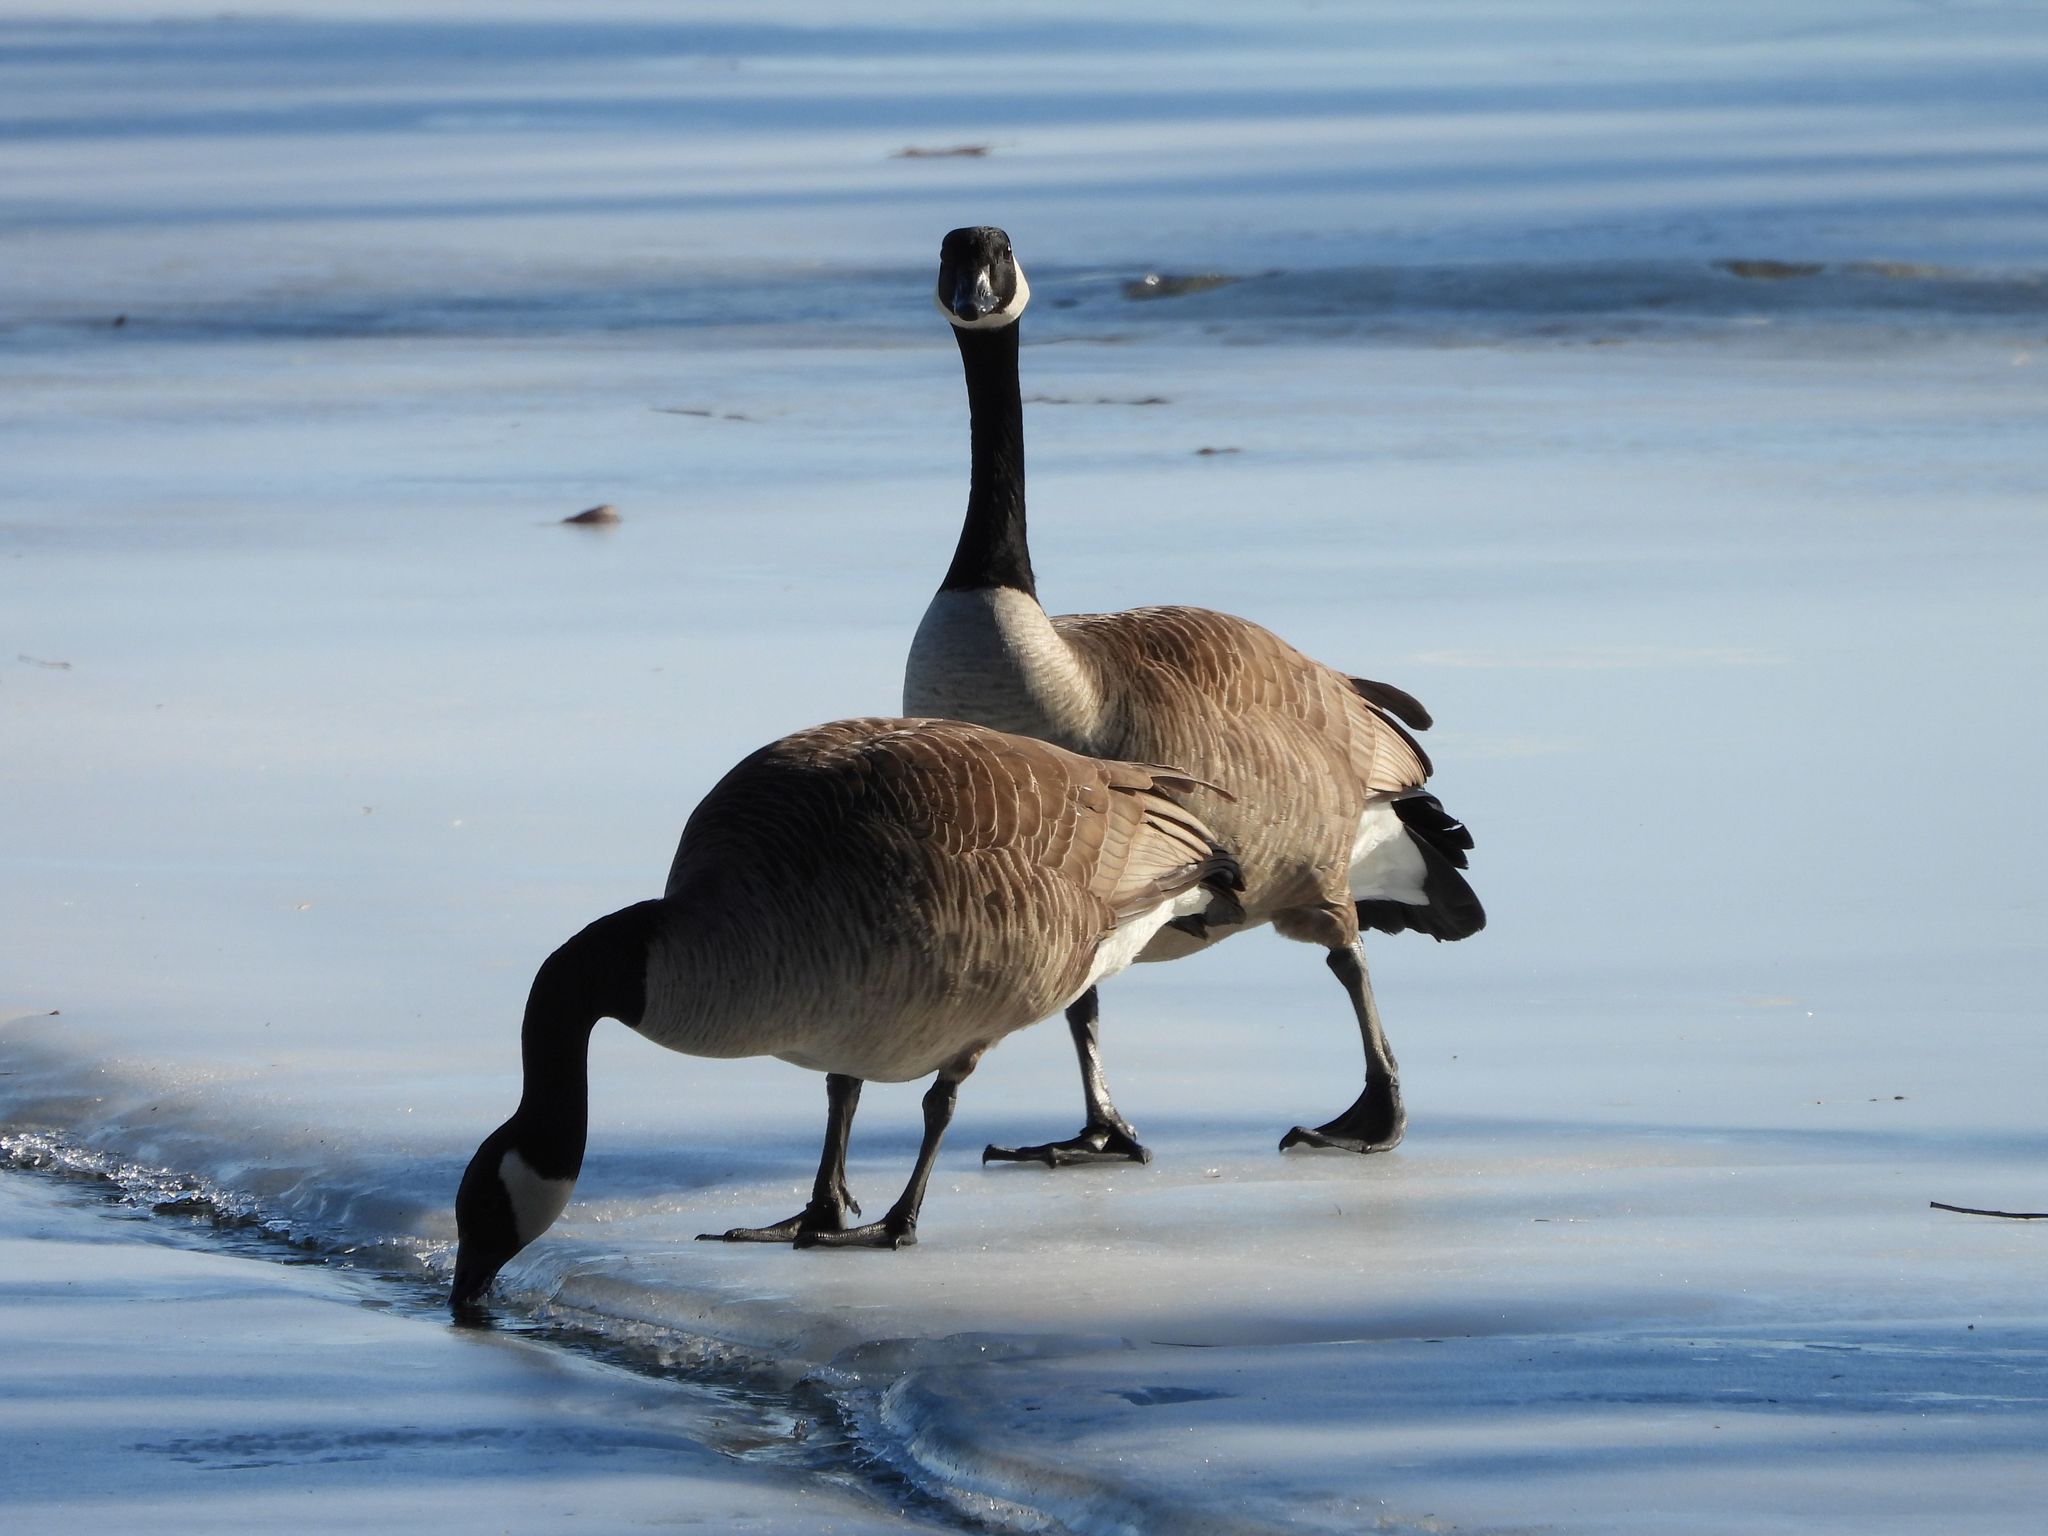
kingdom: Animalia
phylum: Chordata
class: Aves
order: Anseriformes
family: Anatidae
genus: Branta
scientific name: Branta canadensis
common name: Canada goose
